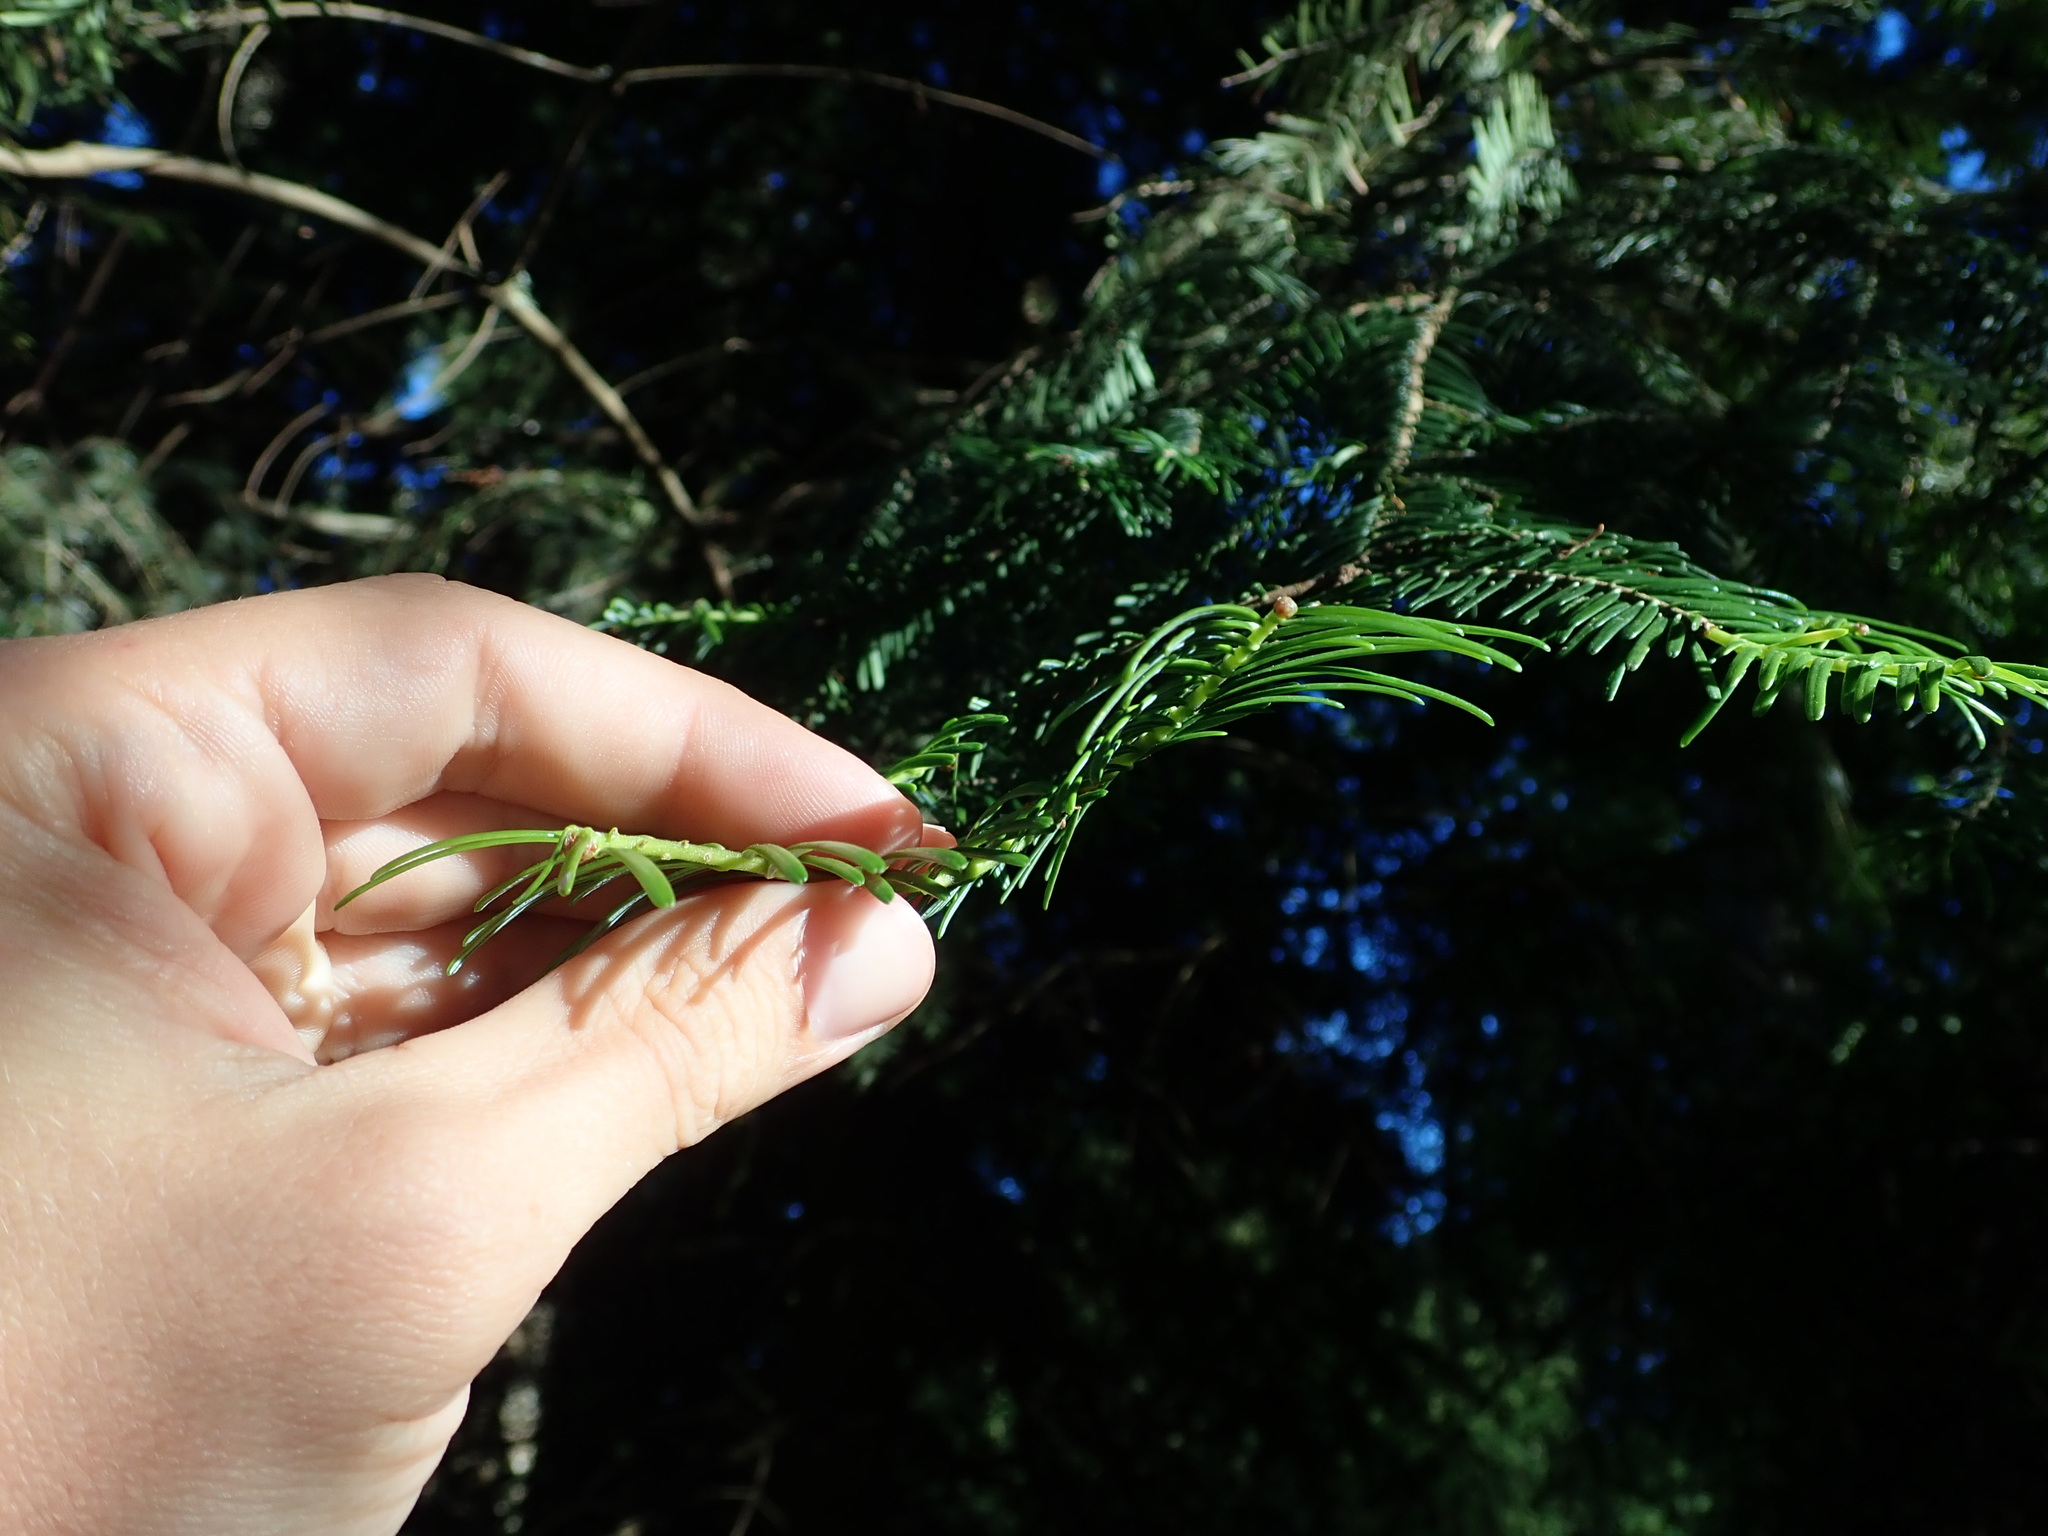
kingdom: Plantae
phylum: Tracheophyta
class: Pinopsida
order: Pinales
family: Pinaceae
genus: Abies
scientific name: Abies grandis
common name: Giant fir
